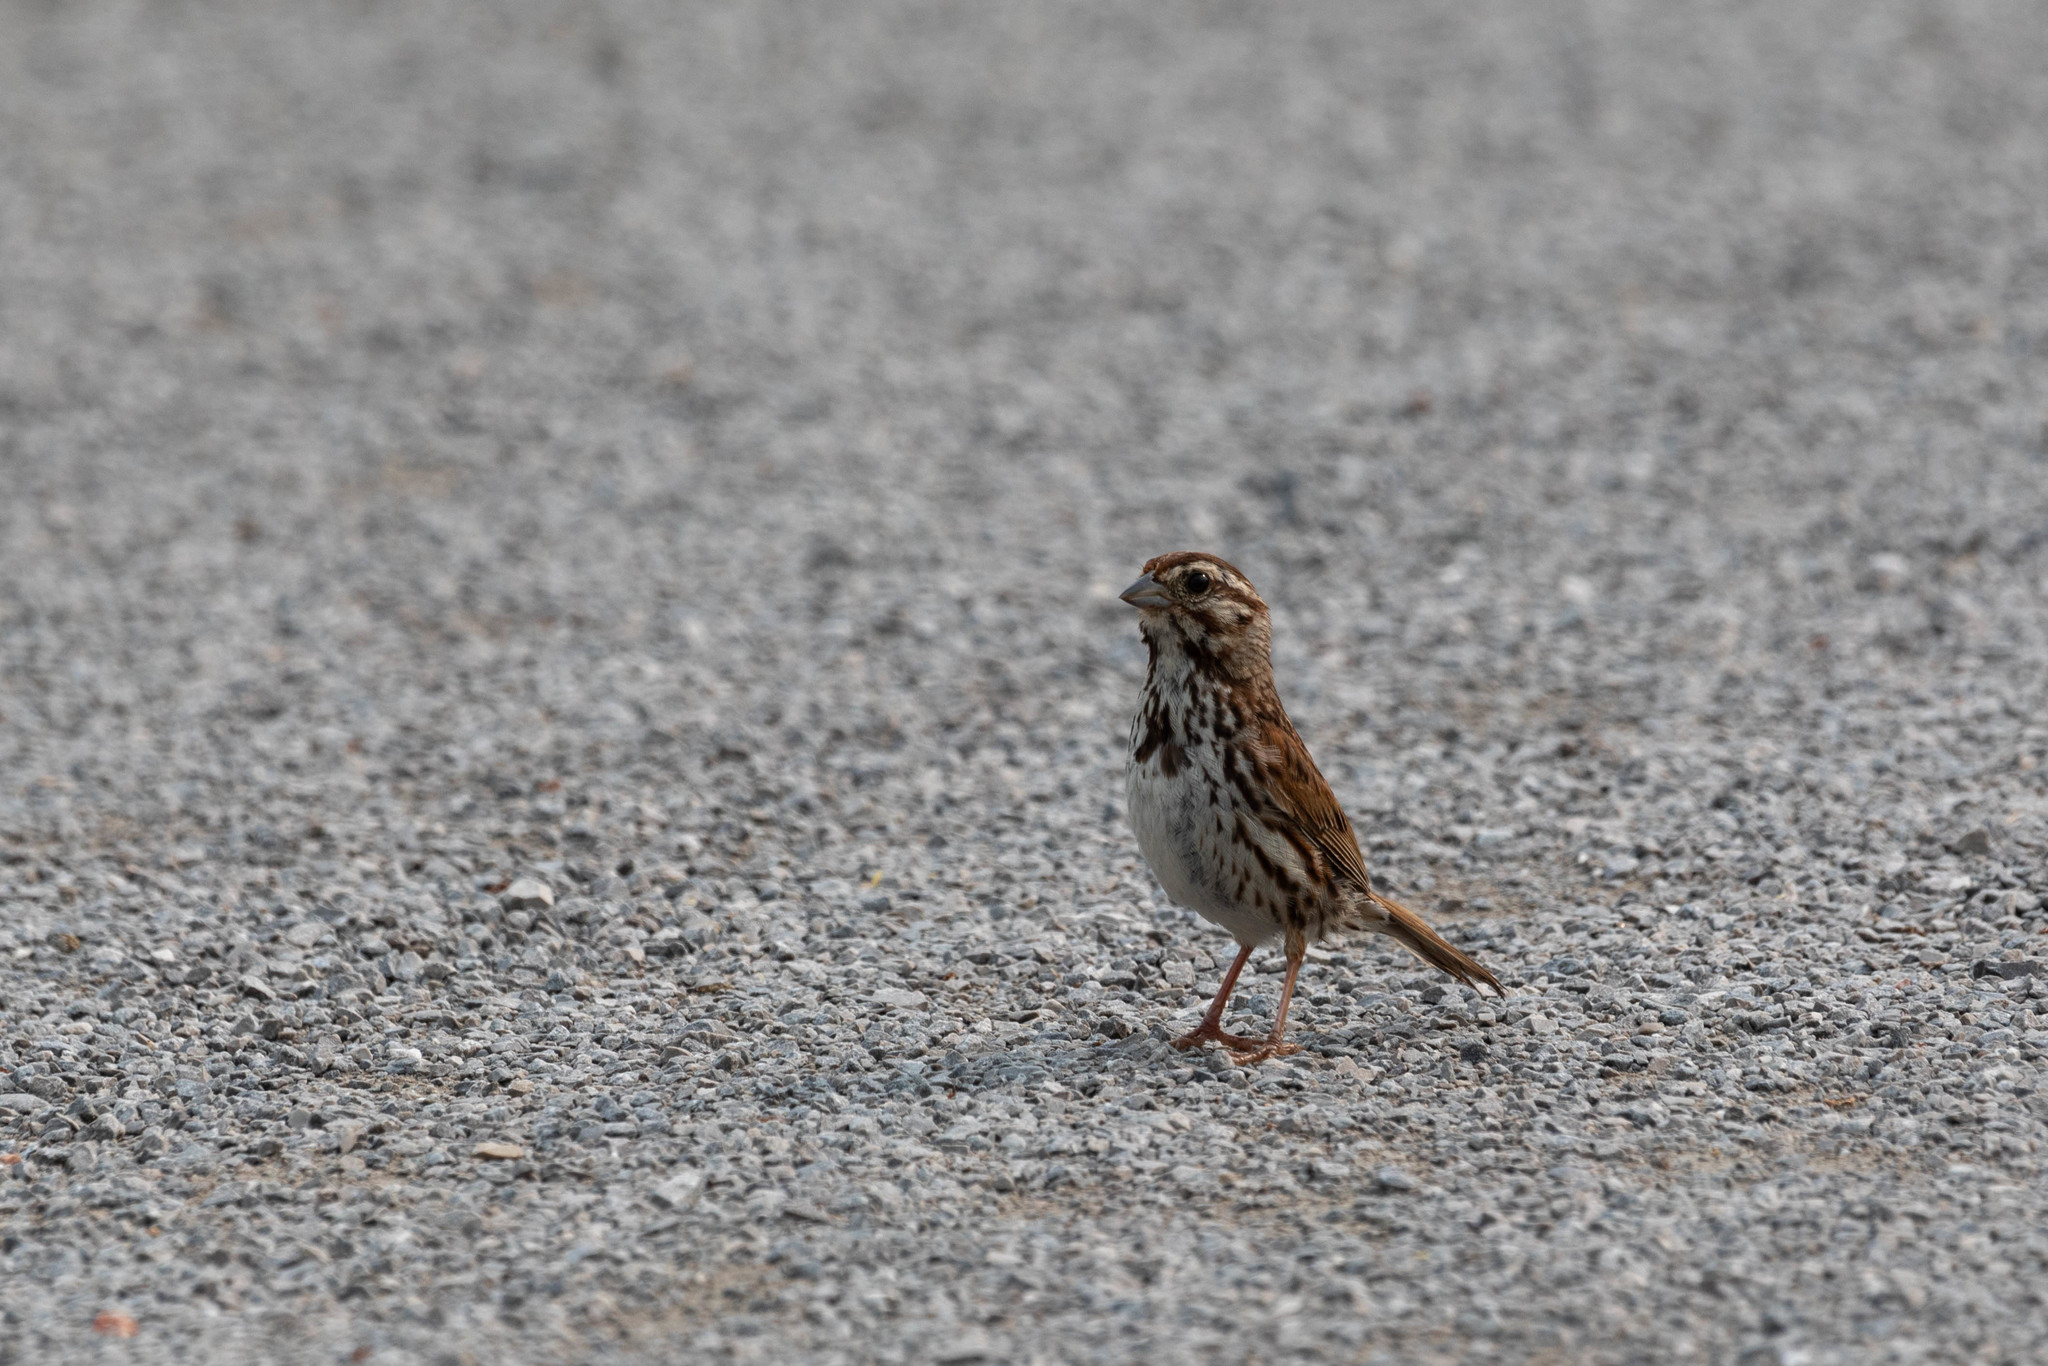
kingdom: Animalia
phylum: Chordata
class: Aves
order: Passeriformes
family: Passerellidae
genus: Melospiza
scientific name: Melospiza melodia
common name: Song sparrow
